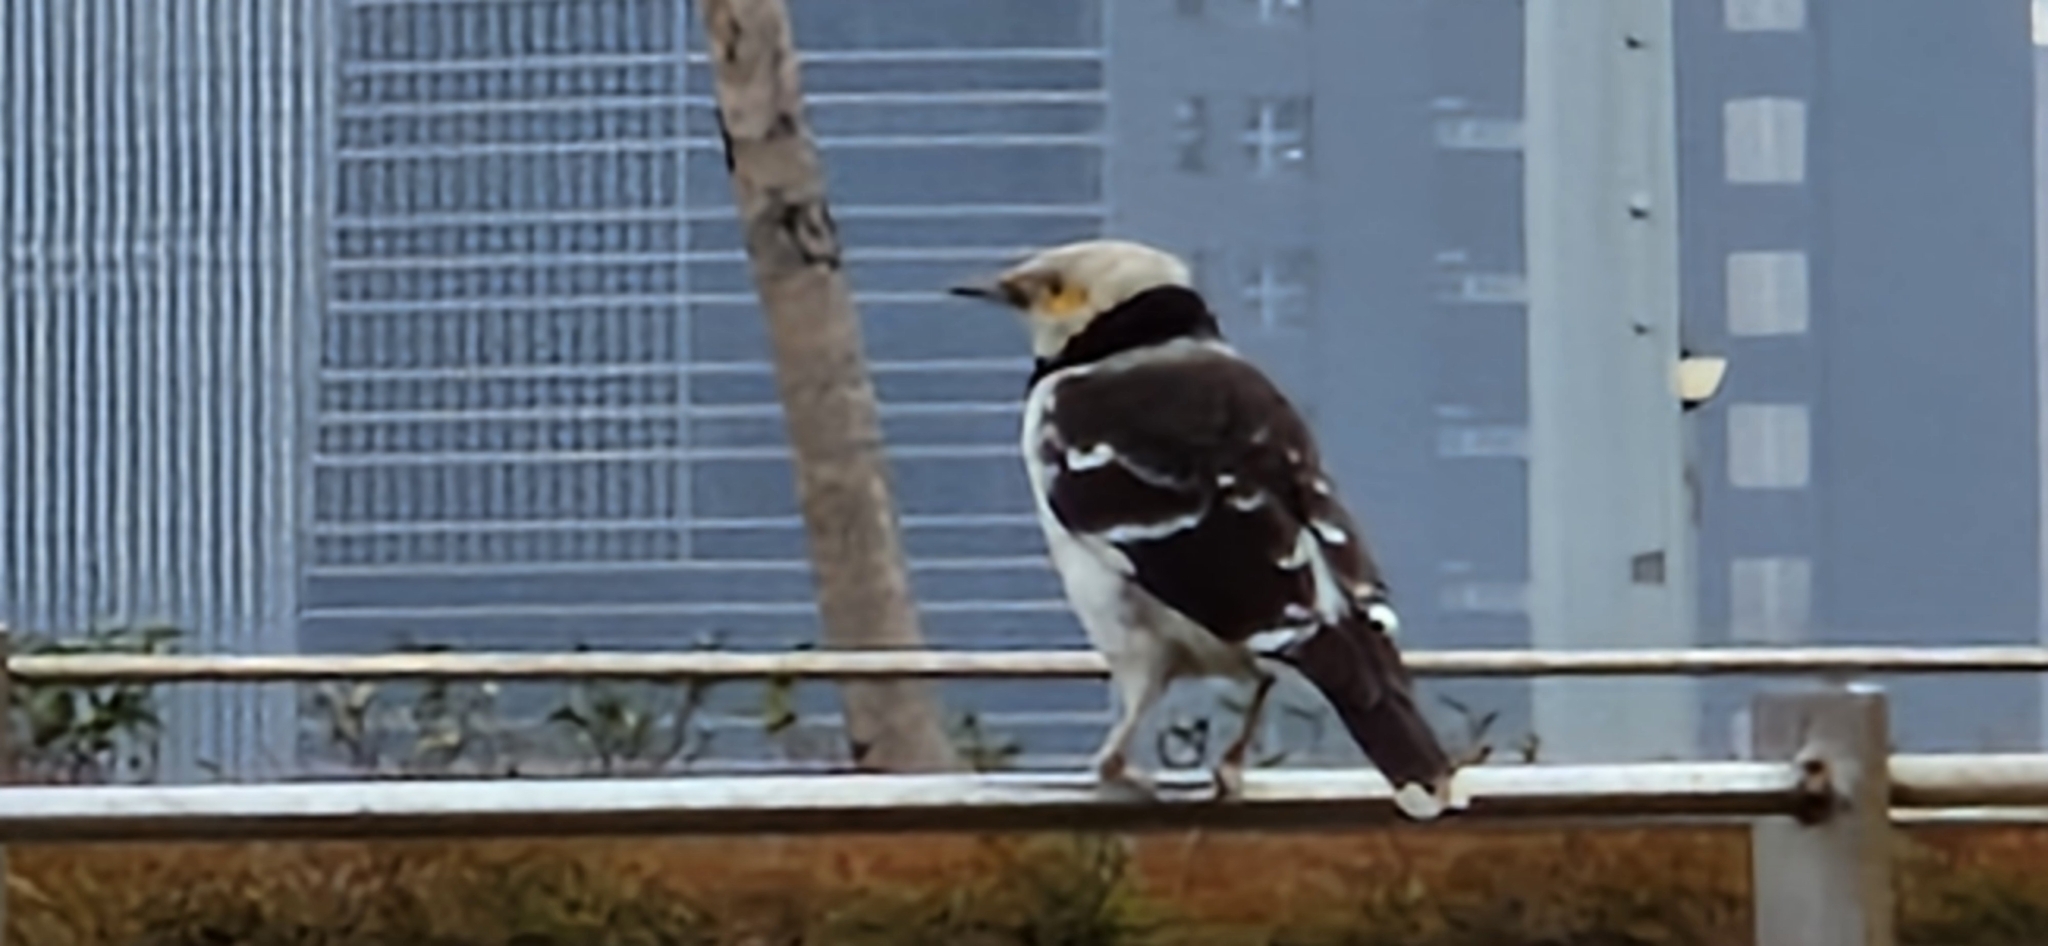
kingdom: Animalia
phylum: Chordata
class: Aves
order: Passeriformes
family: Sturnidae
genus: Gracupica
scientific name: Gracupica nigricollis
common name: Black-collared starling
